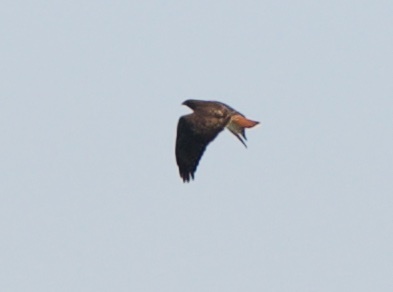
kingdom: Animalia
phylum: Chordata
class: Aves
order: Accipitriformes
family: Accipitridae
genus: Buteo
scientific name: Buteo jamaicensis
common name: Red-tailed hawk
